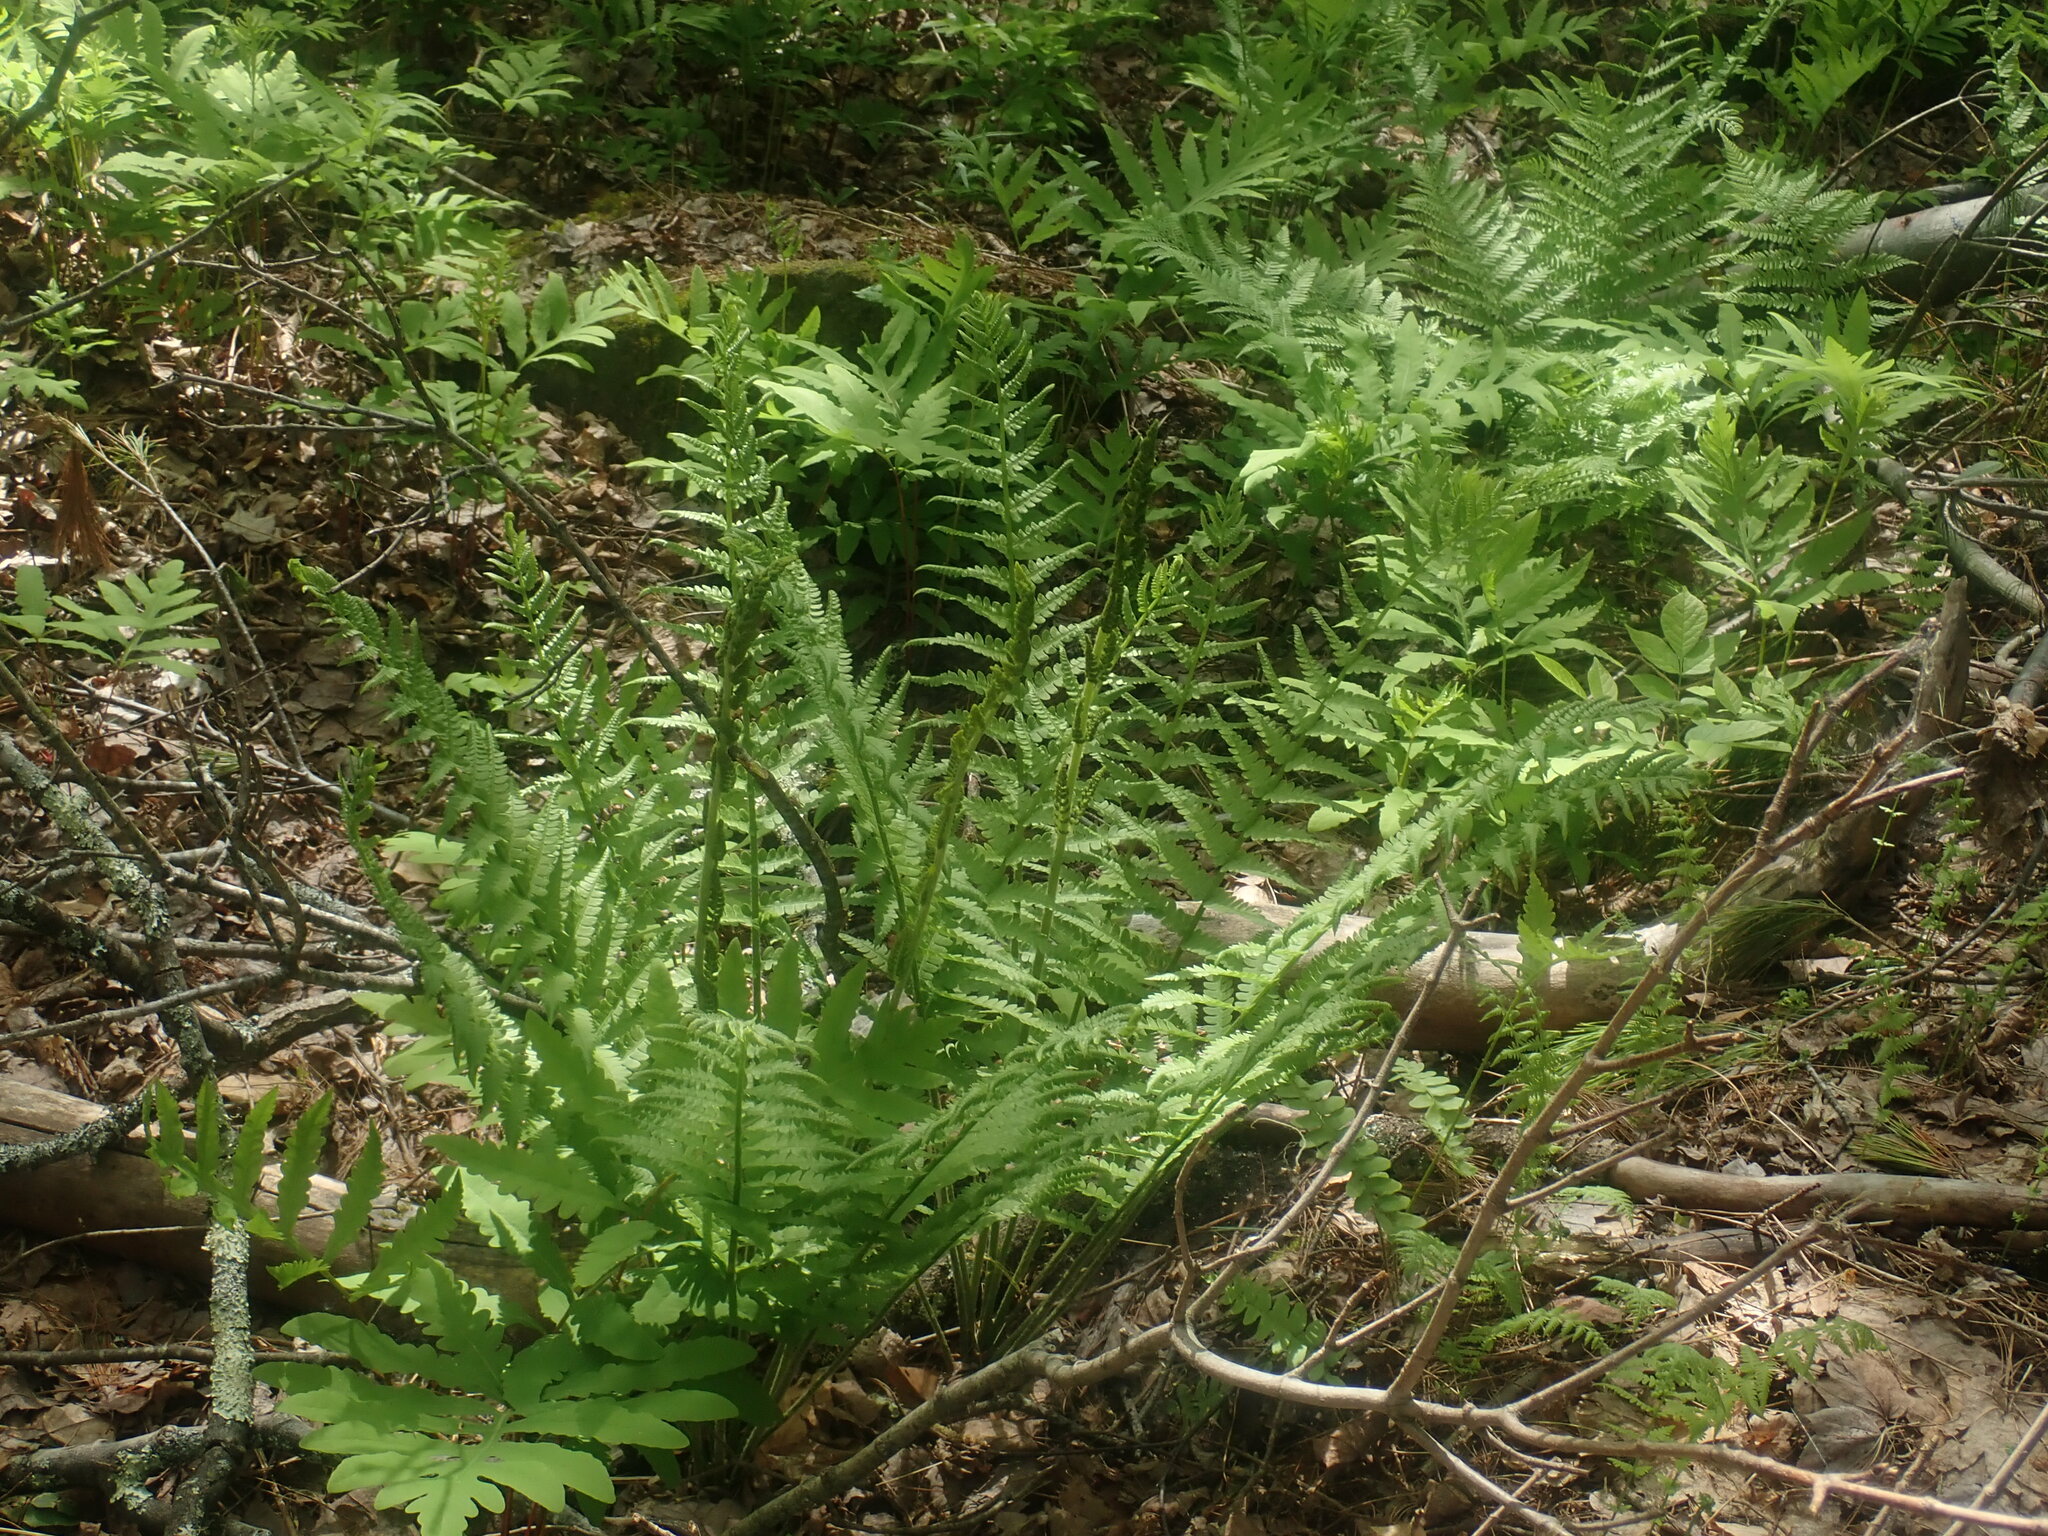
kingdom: Plantae
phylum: Tracheophyta
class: Polypodiopsida
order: Osmundales
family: Osmundaceae
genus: Osmundastrum
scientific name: Osmundastrum cinnamomeum
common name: Cinnamon fern
